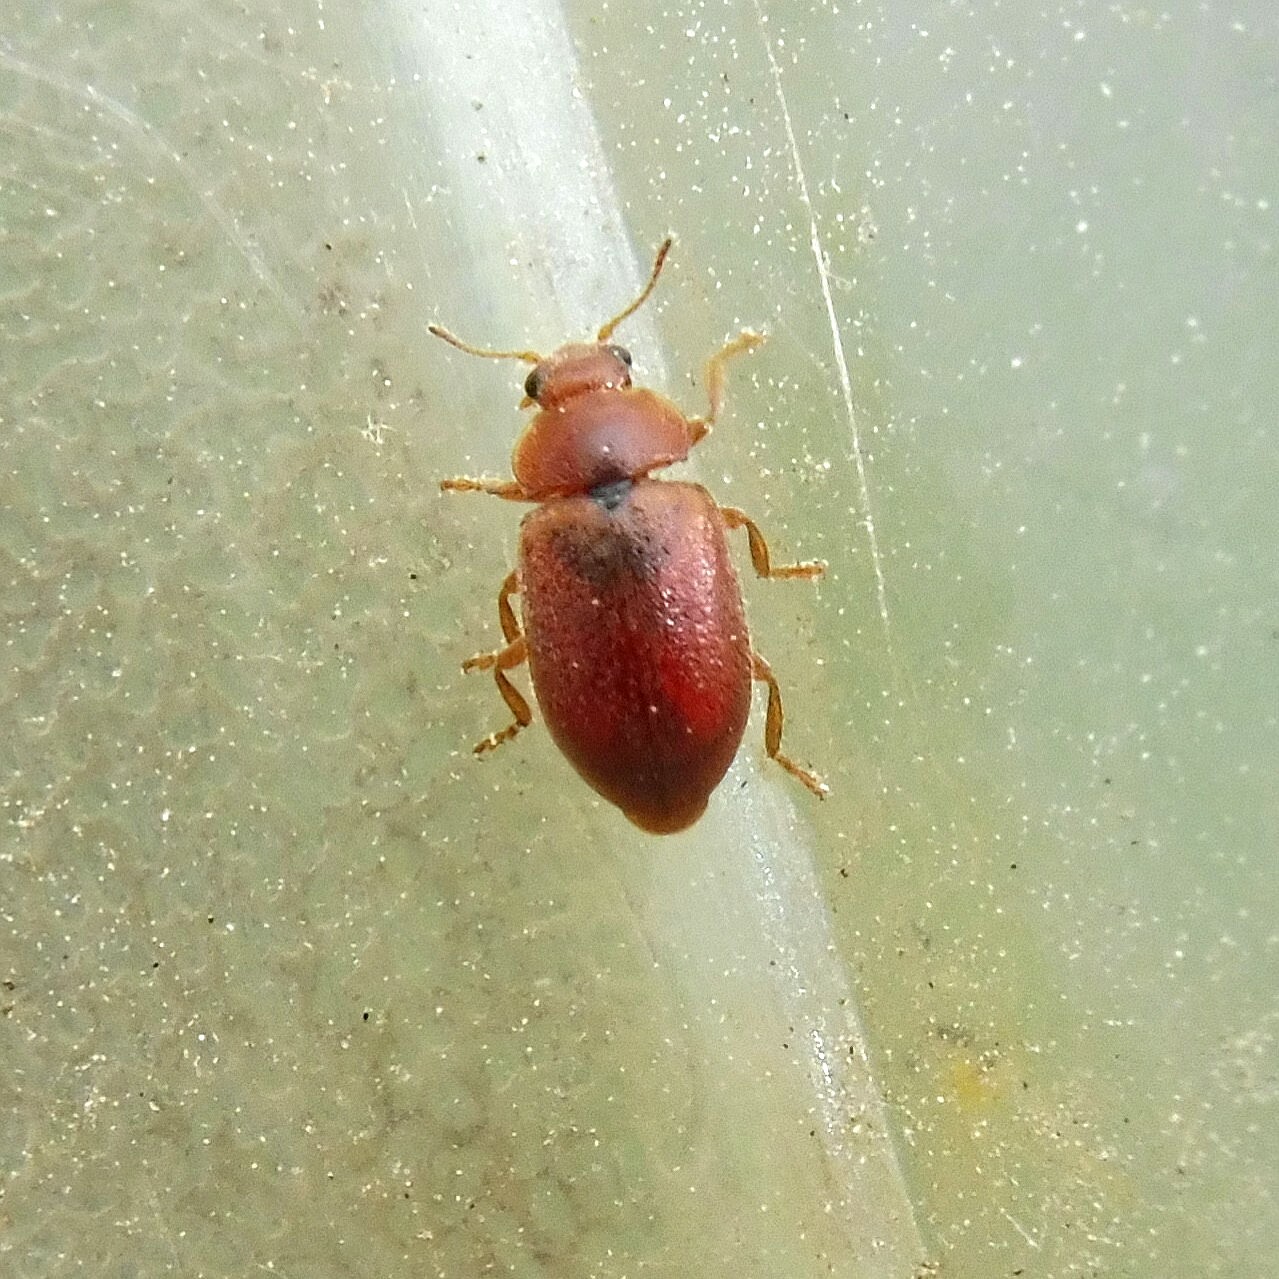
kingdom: Animalia
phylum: Arthropoda
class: Insecta
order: Coleoptera
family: Coccinellidae
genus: Coccidula
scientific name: Coccidula rufa
